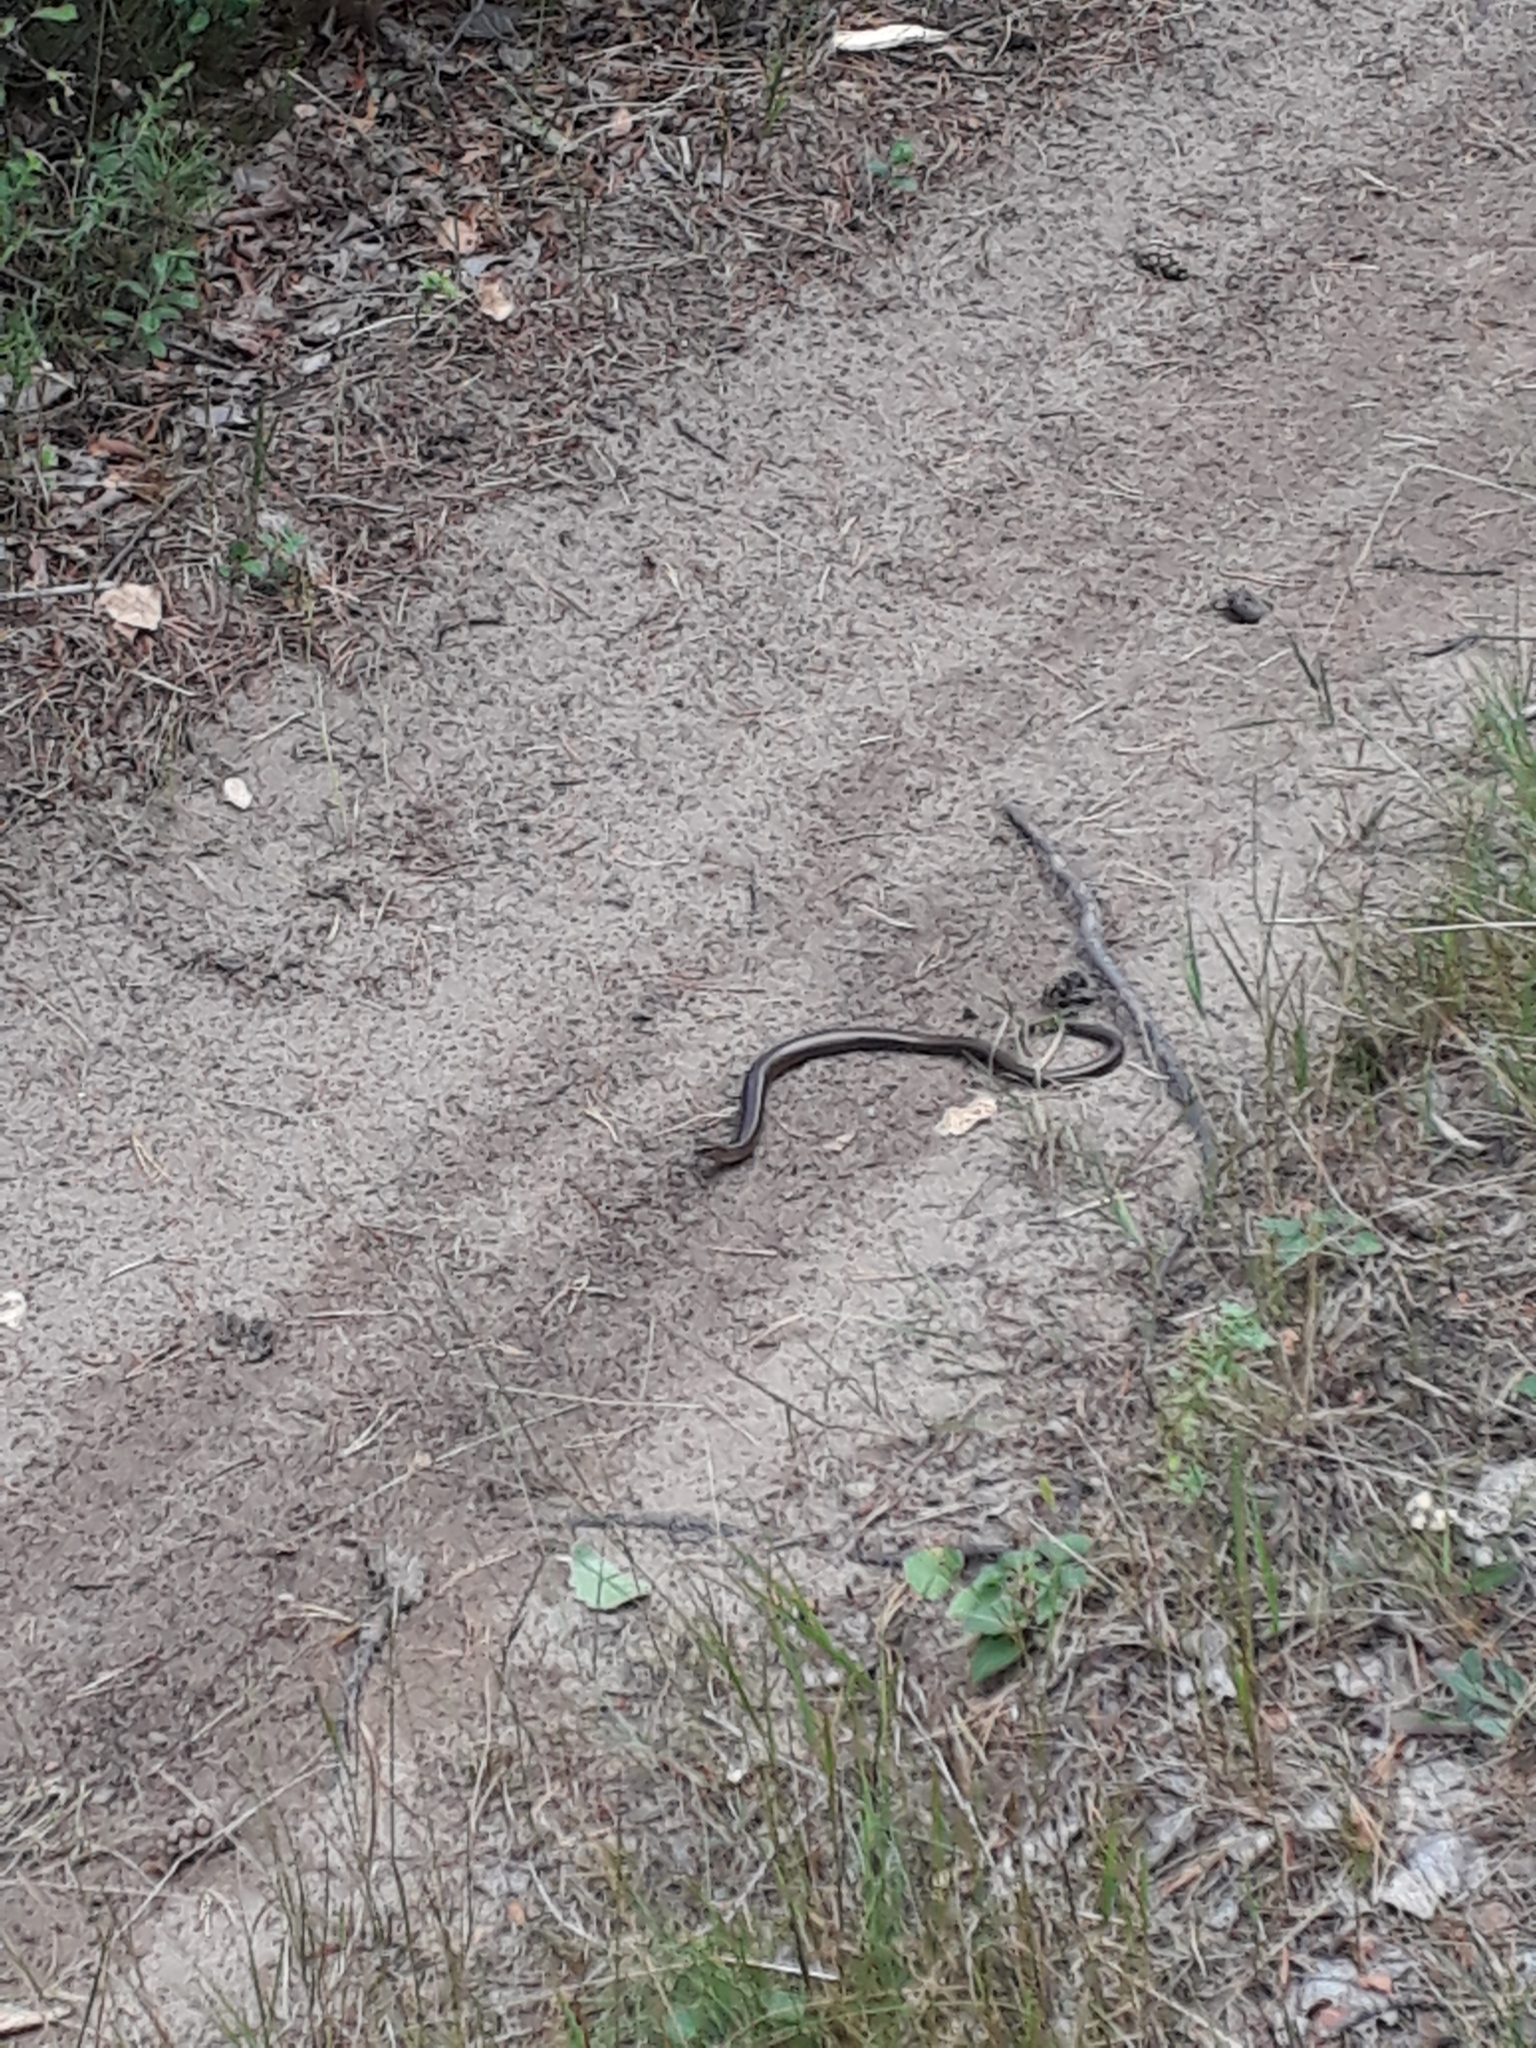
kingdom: Animalia
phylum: Chordata
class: Squamata
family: Anguidae
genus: Anguis
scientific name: Anguis colchica
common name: Slow worm
